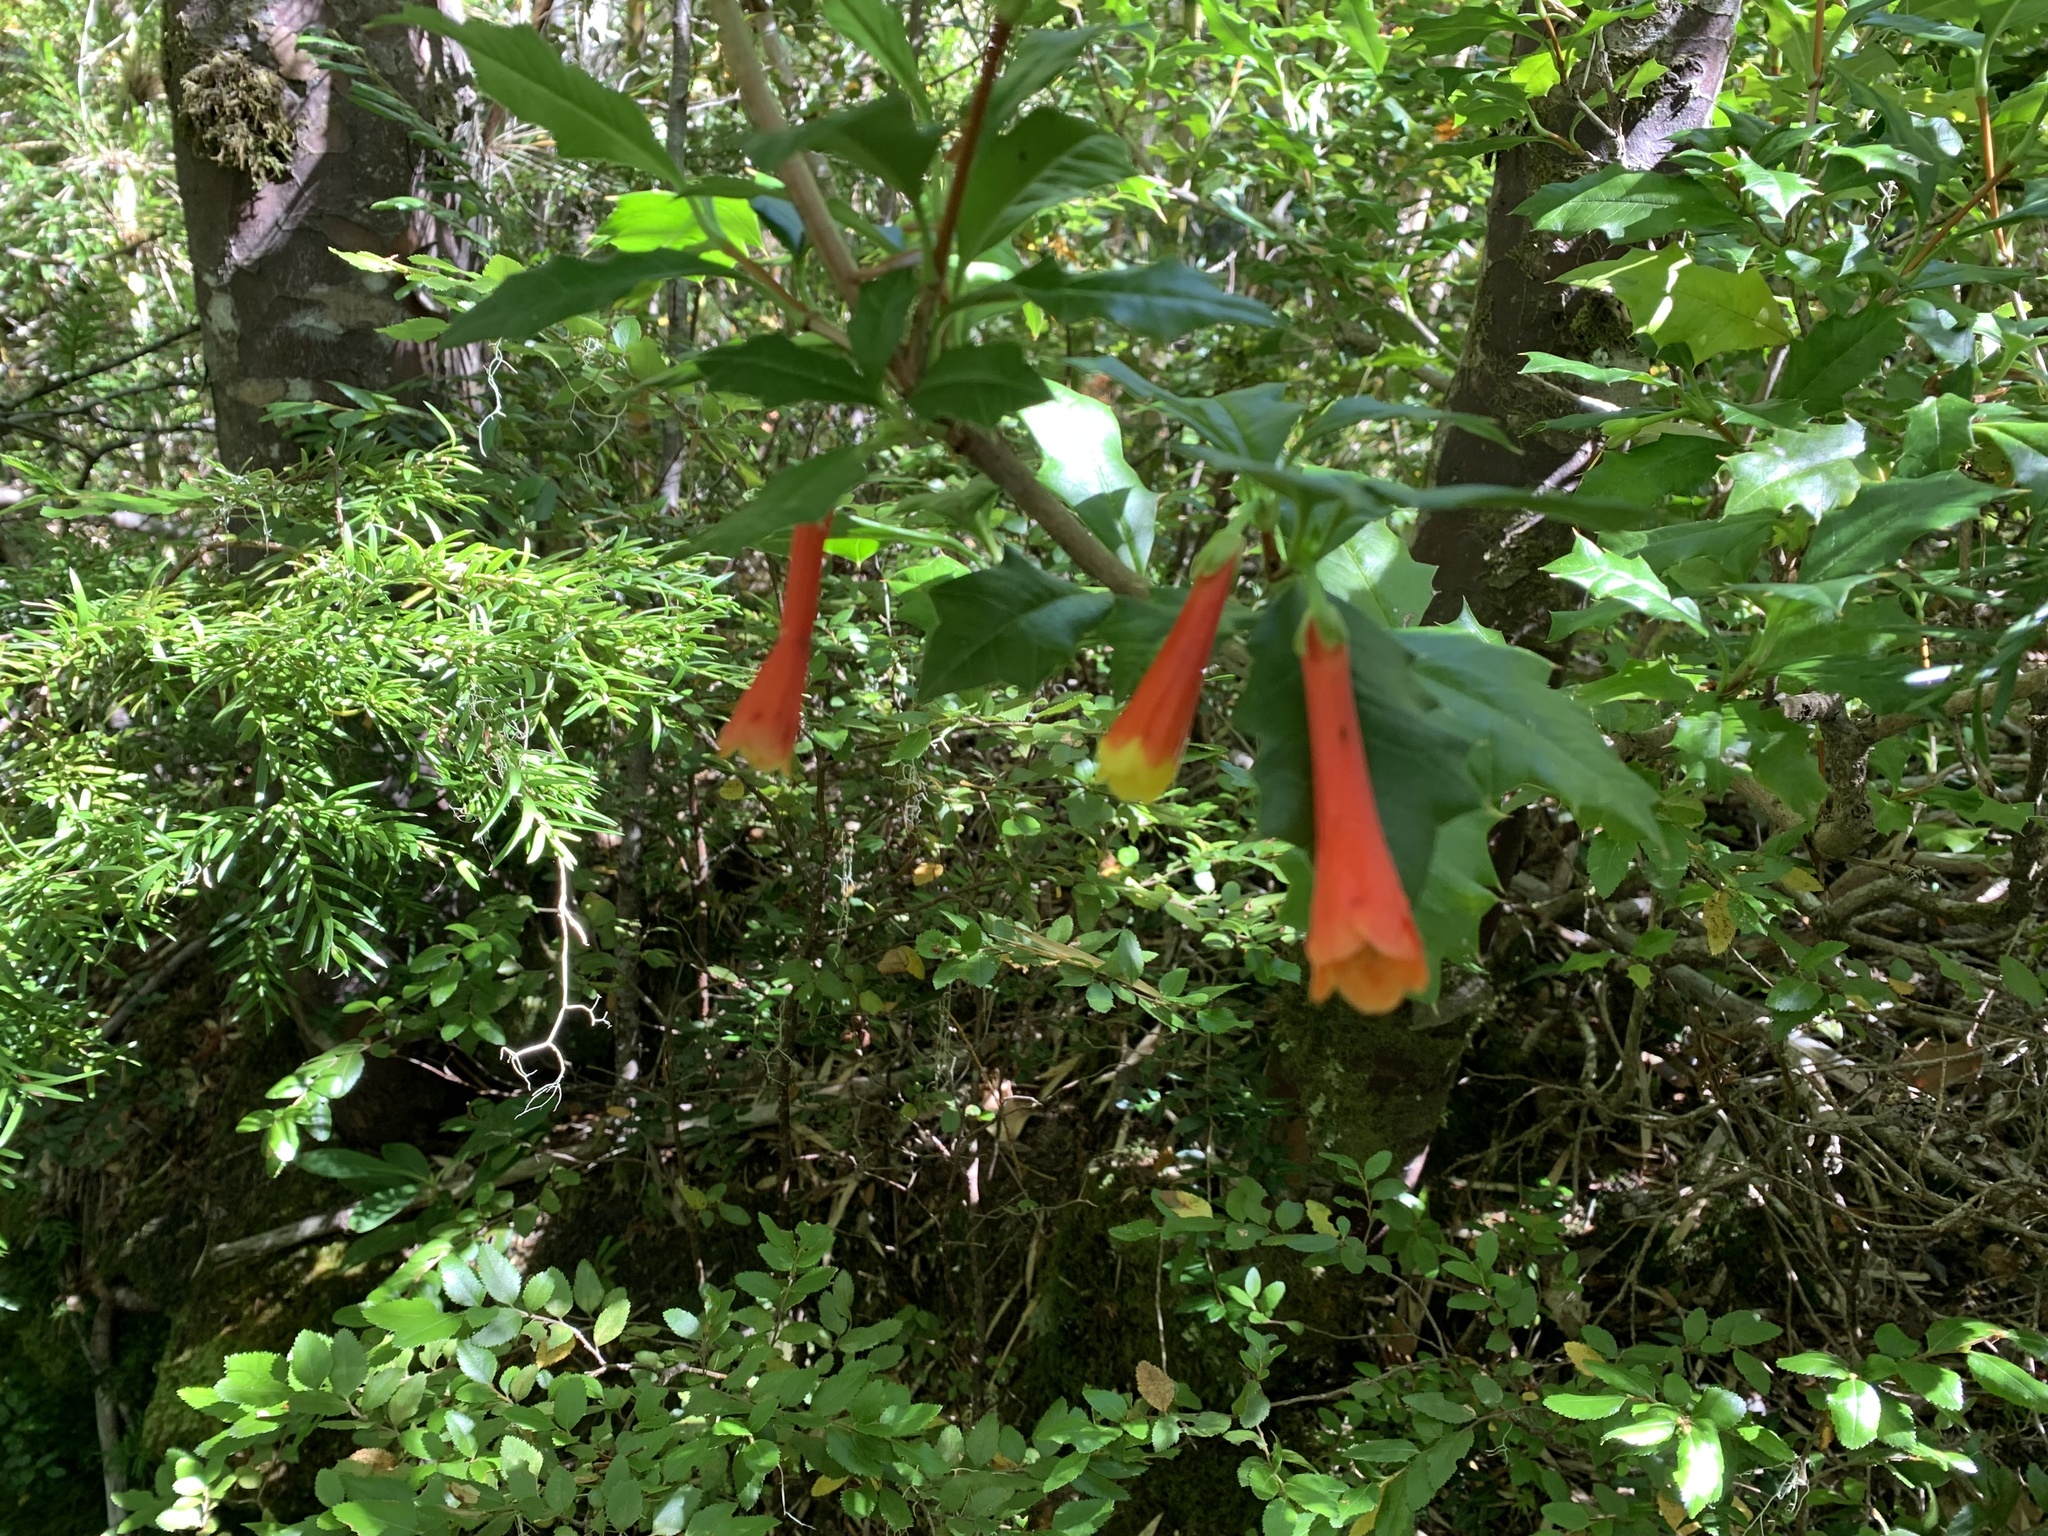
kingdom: Plantae
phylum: Tracheophyta
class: Magnoliopsida
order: Bruniales
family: Columelliaceae
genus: Desfontainia
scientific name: Desfontainia fulgens
